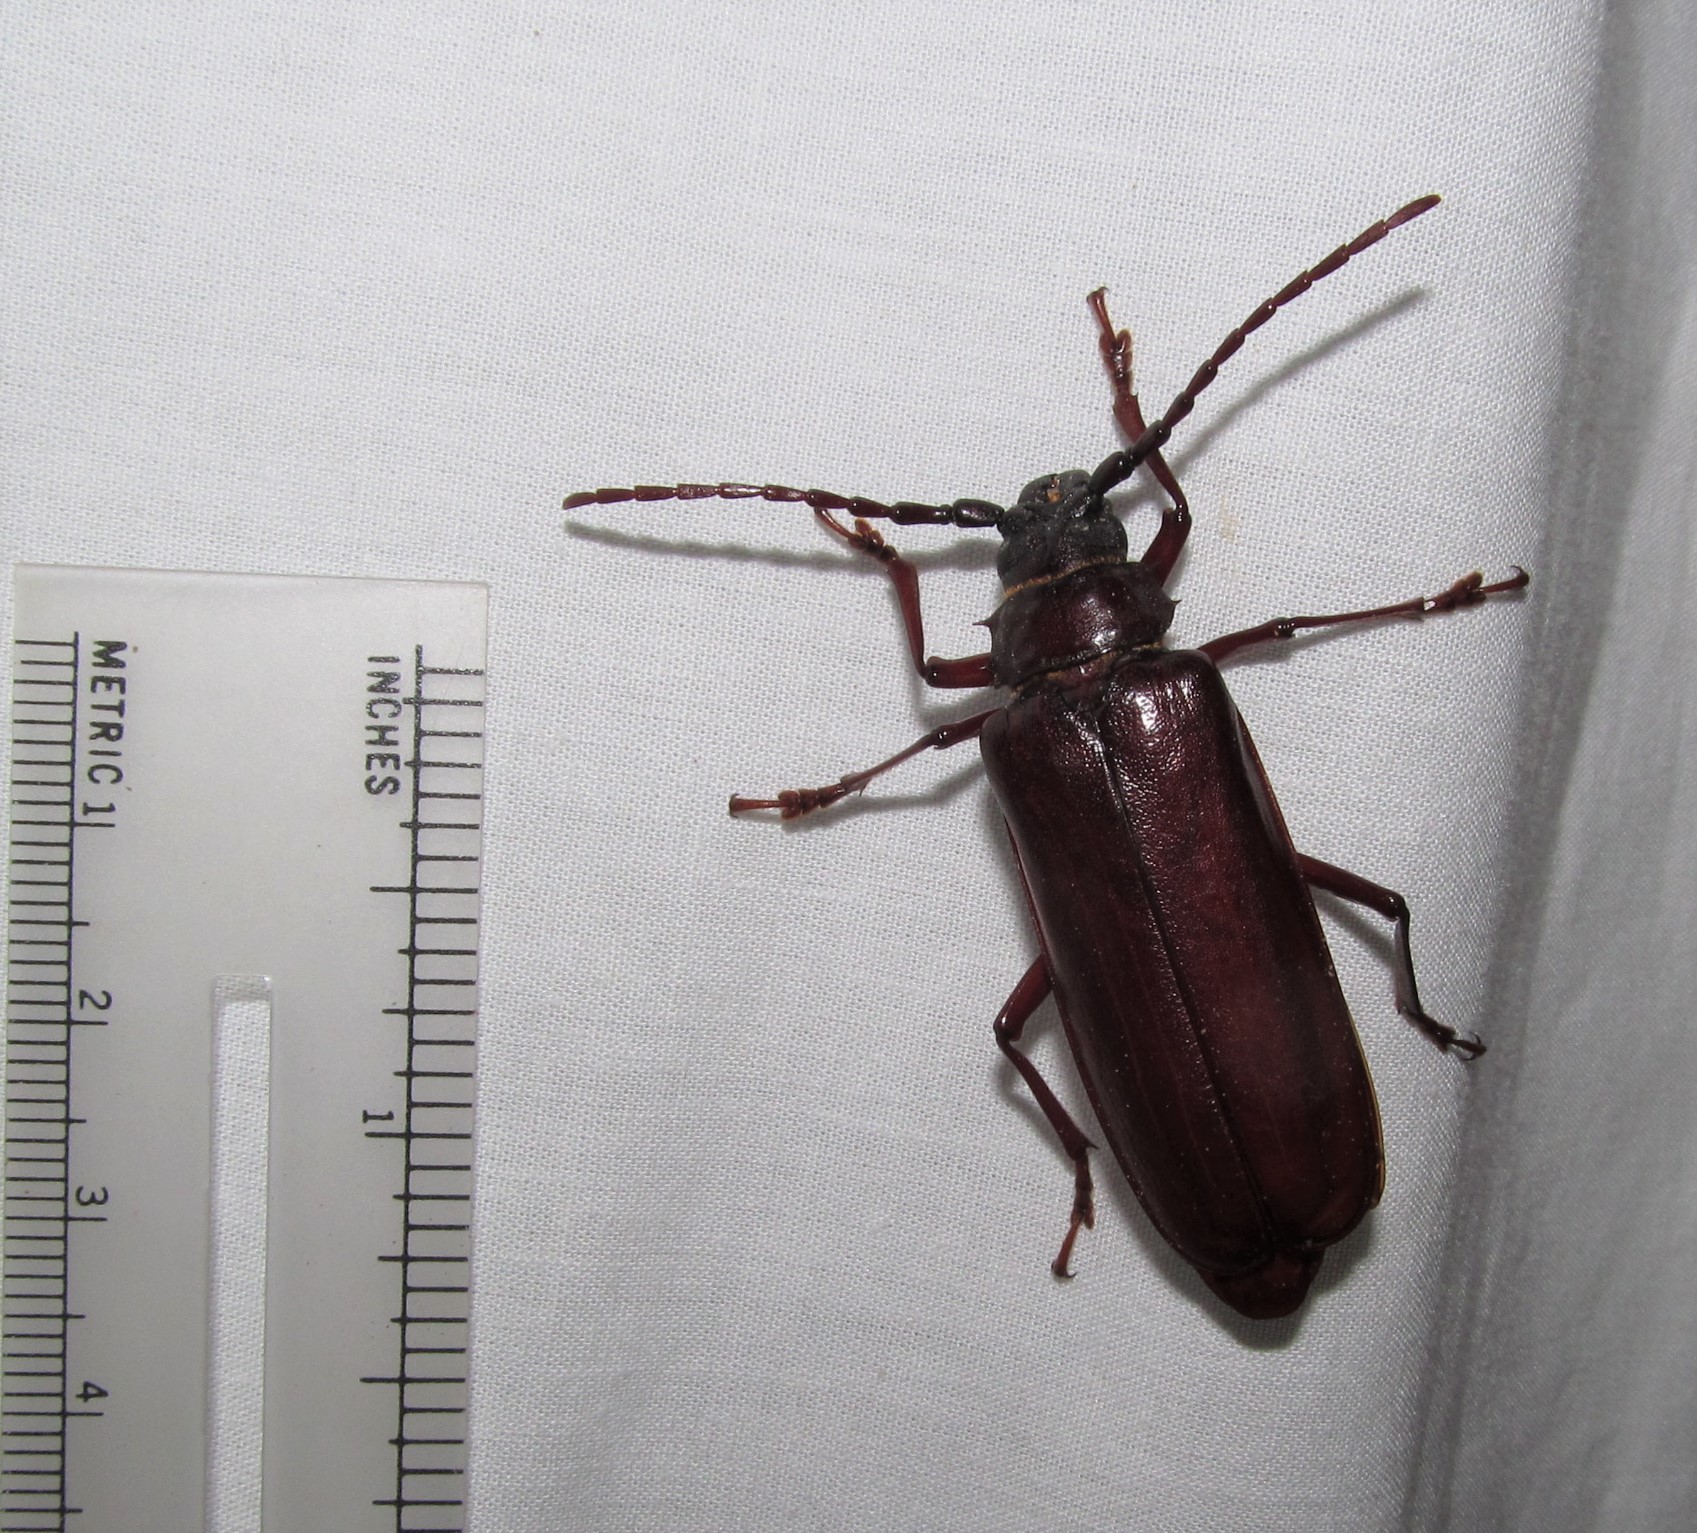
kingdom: Animalia
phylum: Arthropoda
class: Insecta
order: Coleoptera
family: Cerambycidae
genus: Orthosoma
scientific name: Orthosoma brunneum
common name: Brown prionid beetle
